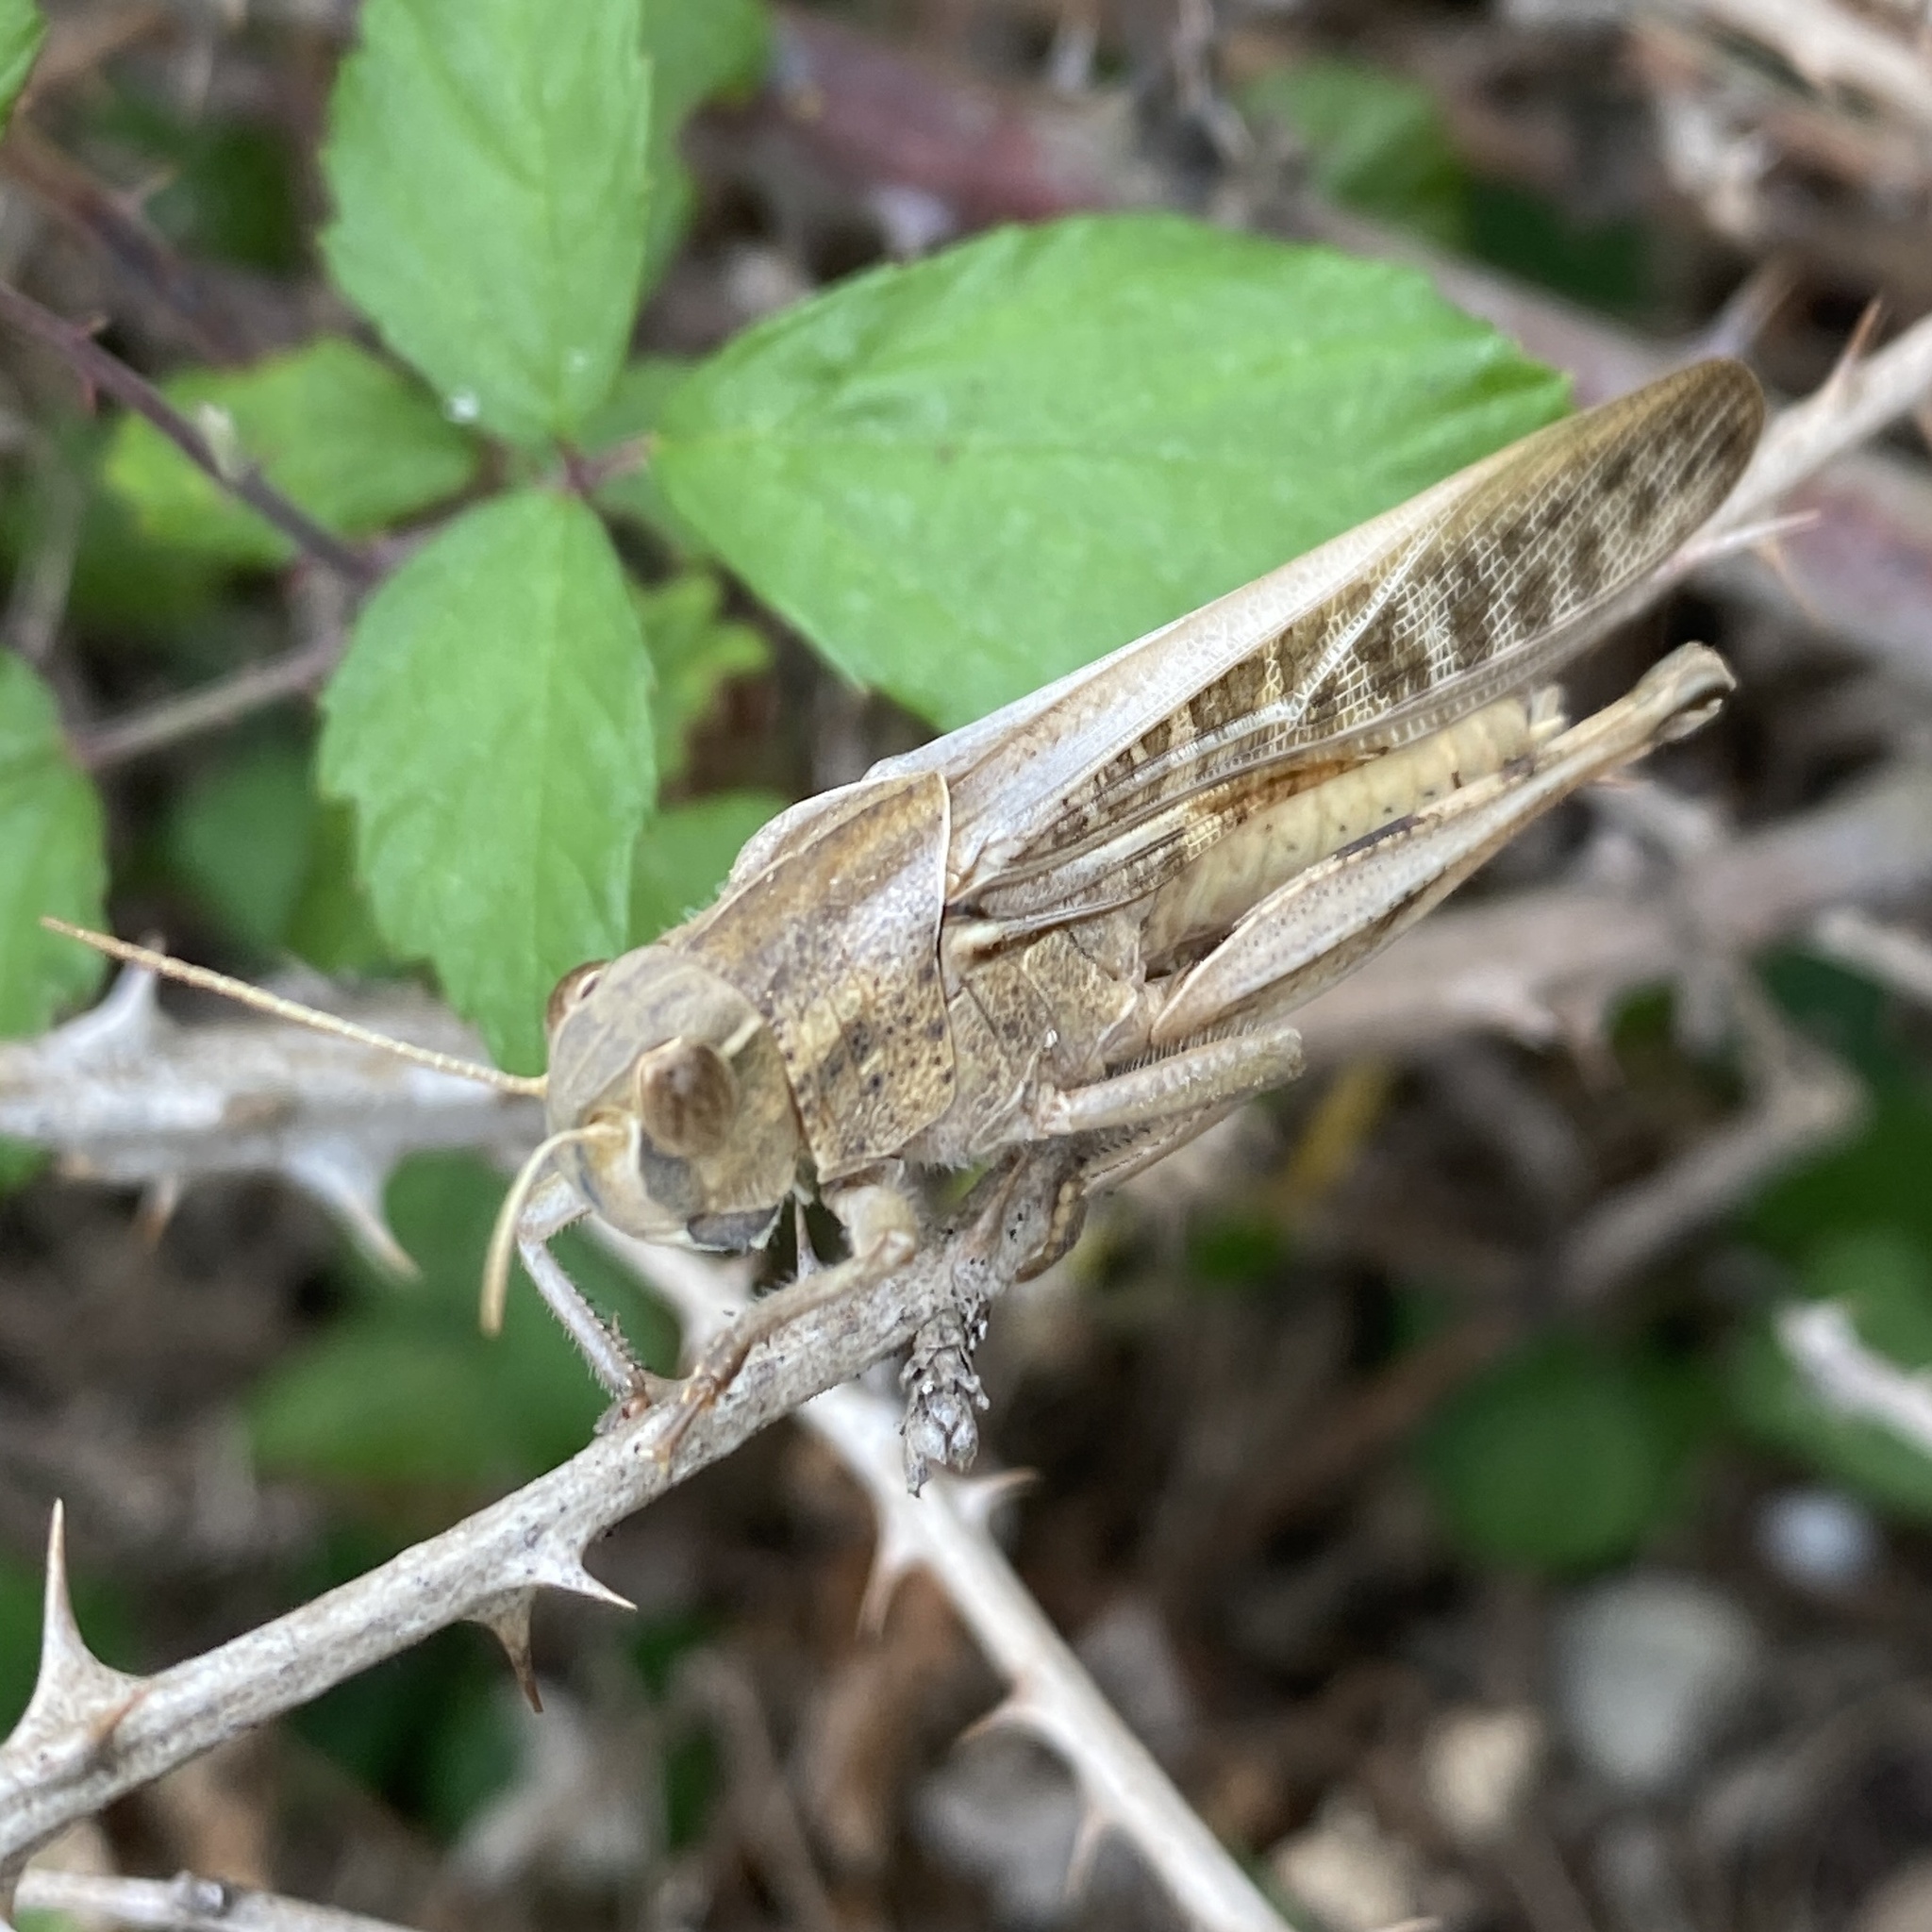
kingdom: Animalia
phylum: Arthropoda
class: Insecta
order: Orthoptera
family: Acrididae
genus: Locusta
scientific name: Locusta migratoria
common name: Migratory locust
